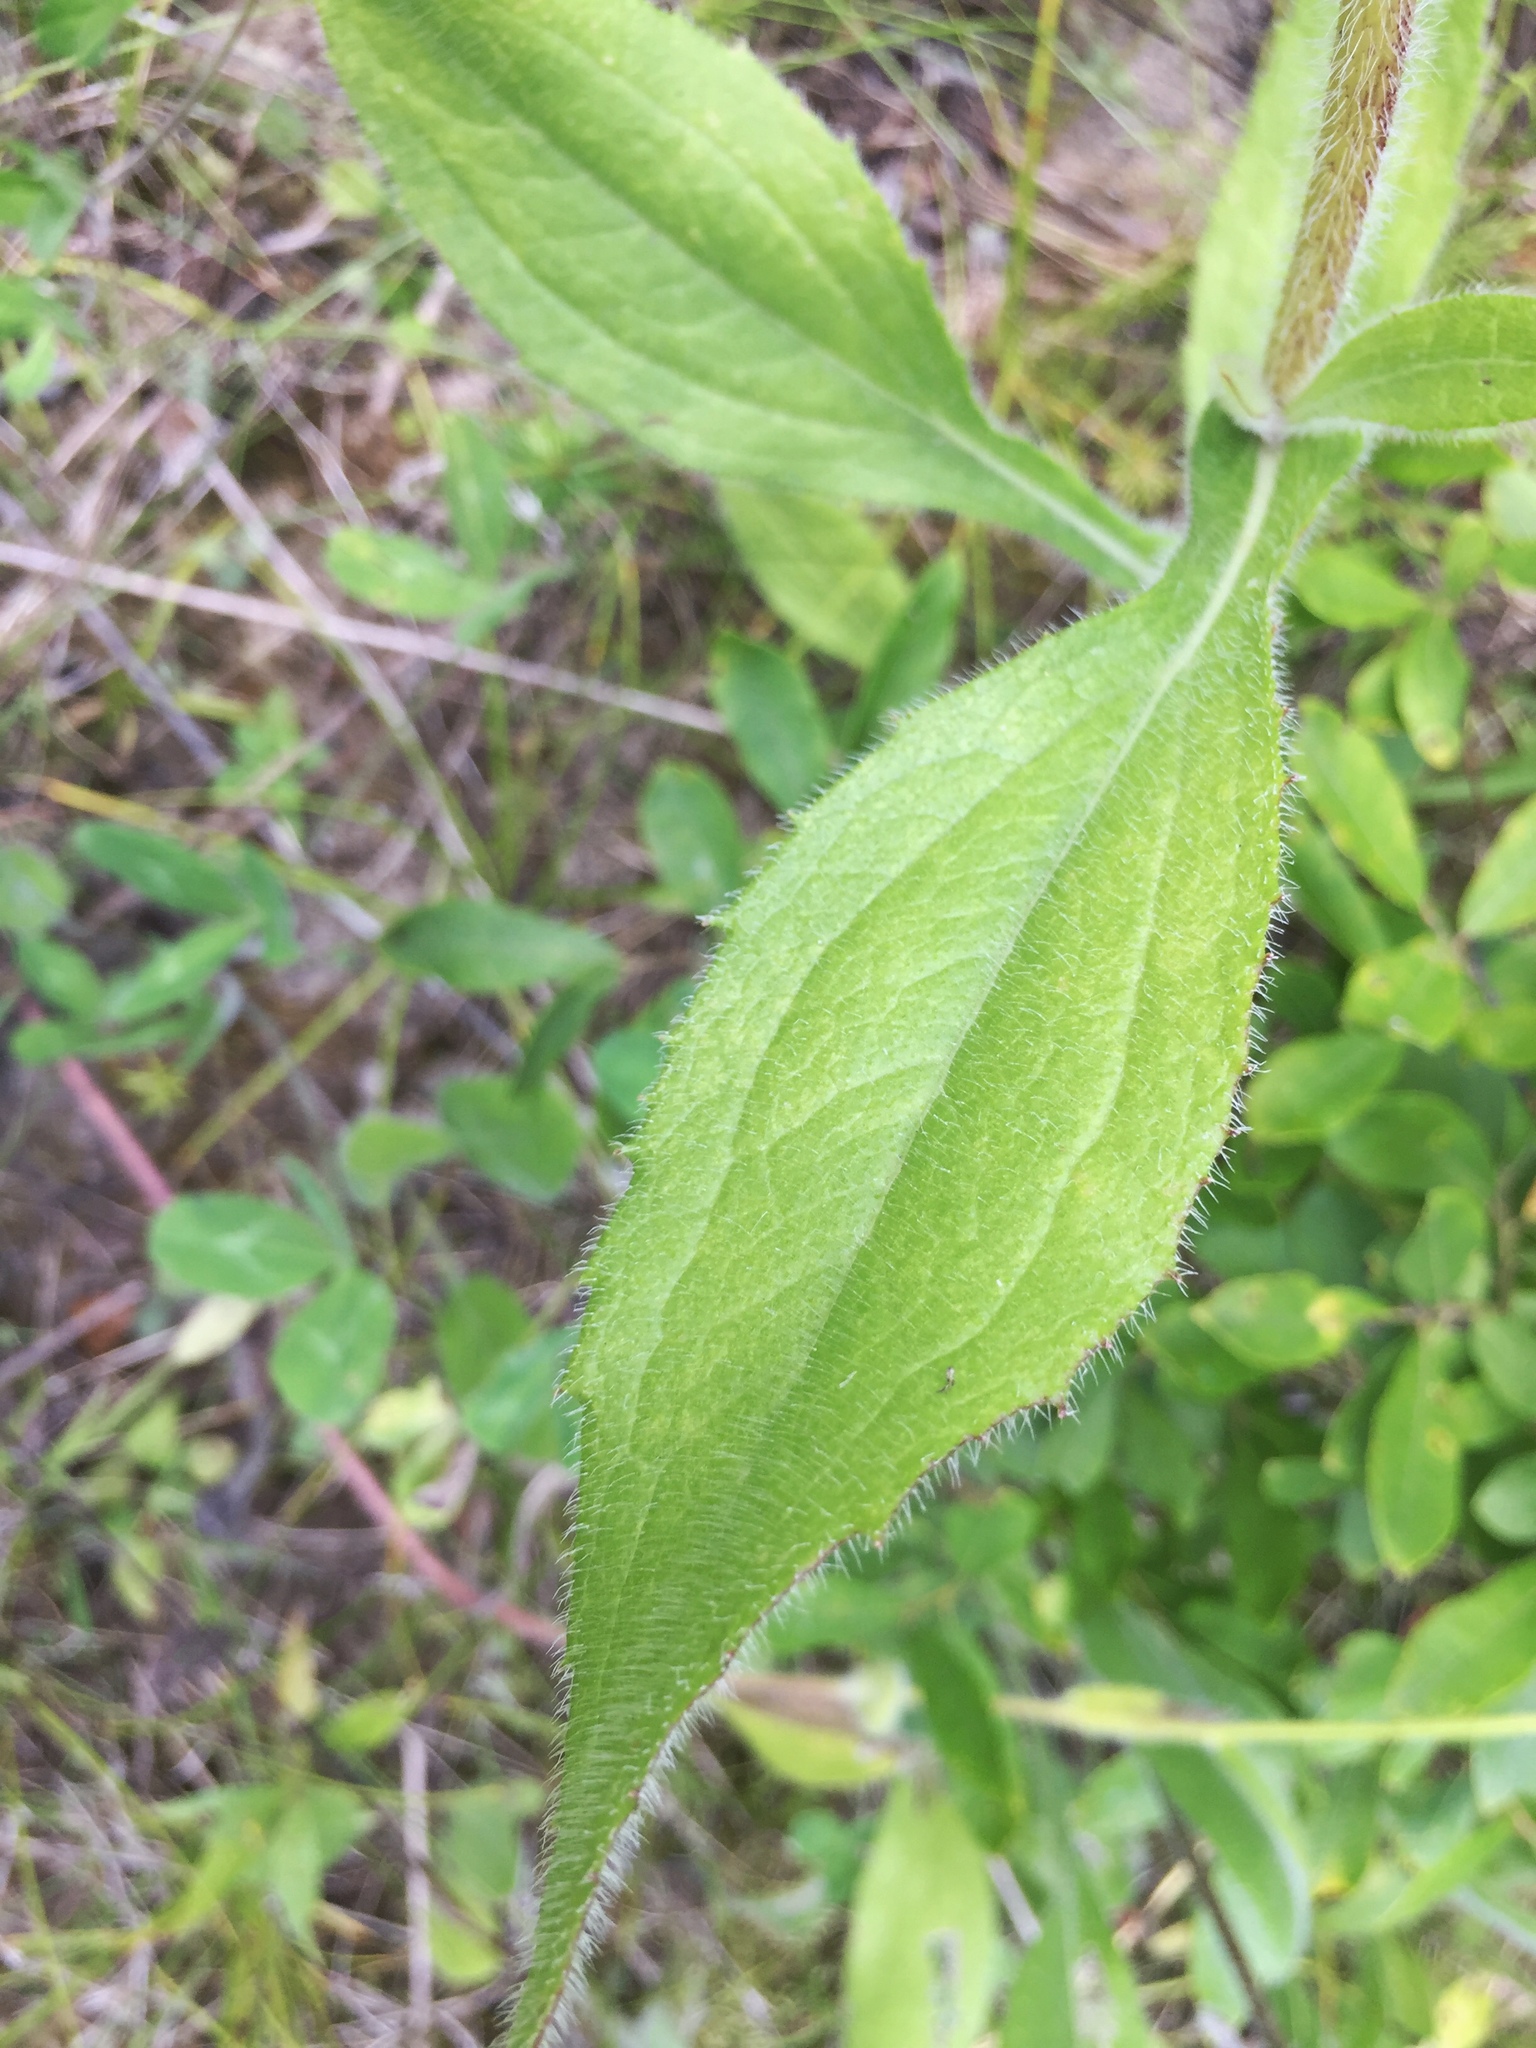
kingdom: Plantae
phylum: Tracheophyta
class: Magnoliopsida
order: Asterales
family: Asteraceae
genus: Rudbeckia
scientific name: Rudbeckia hirta
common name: Black-eyed-susan
